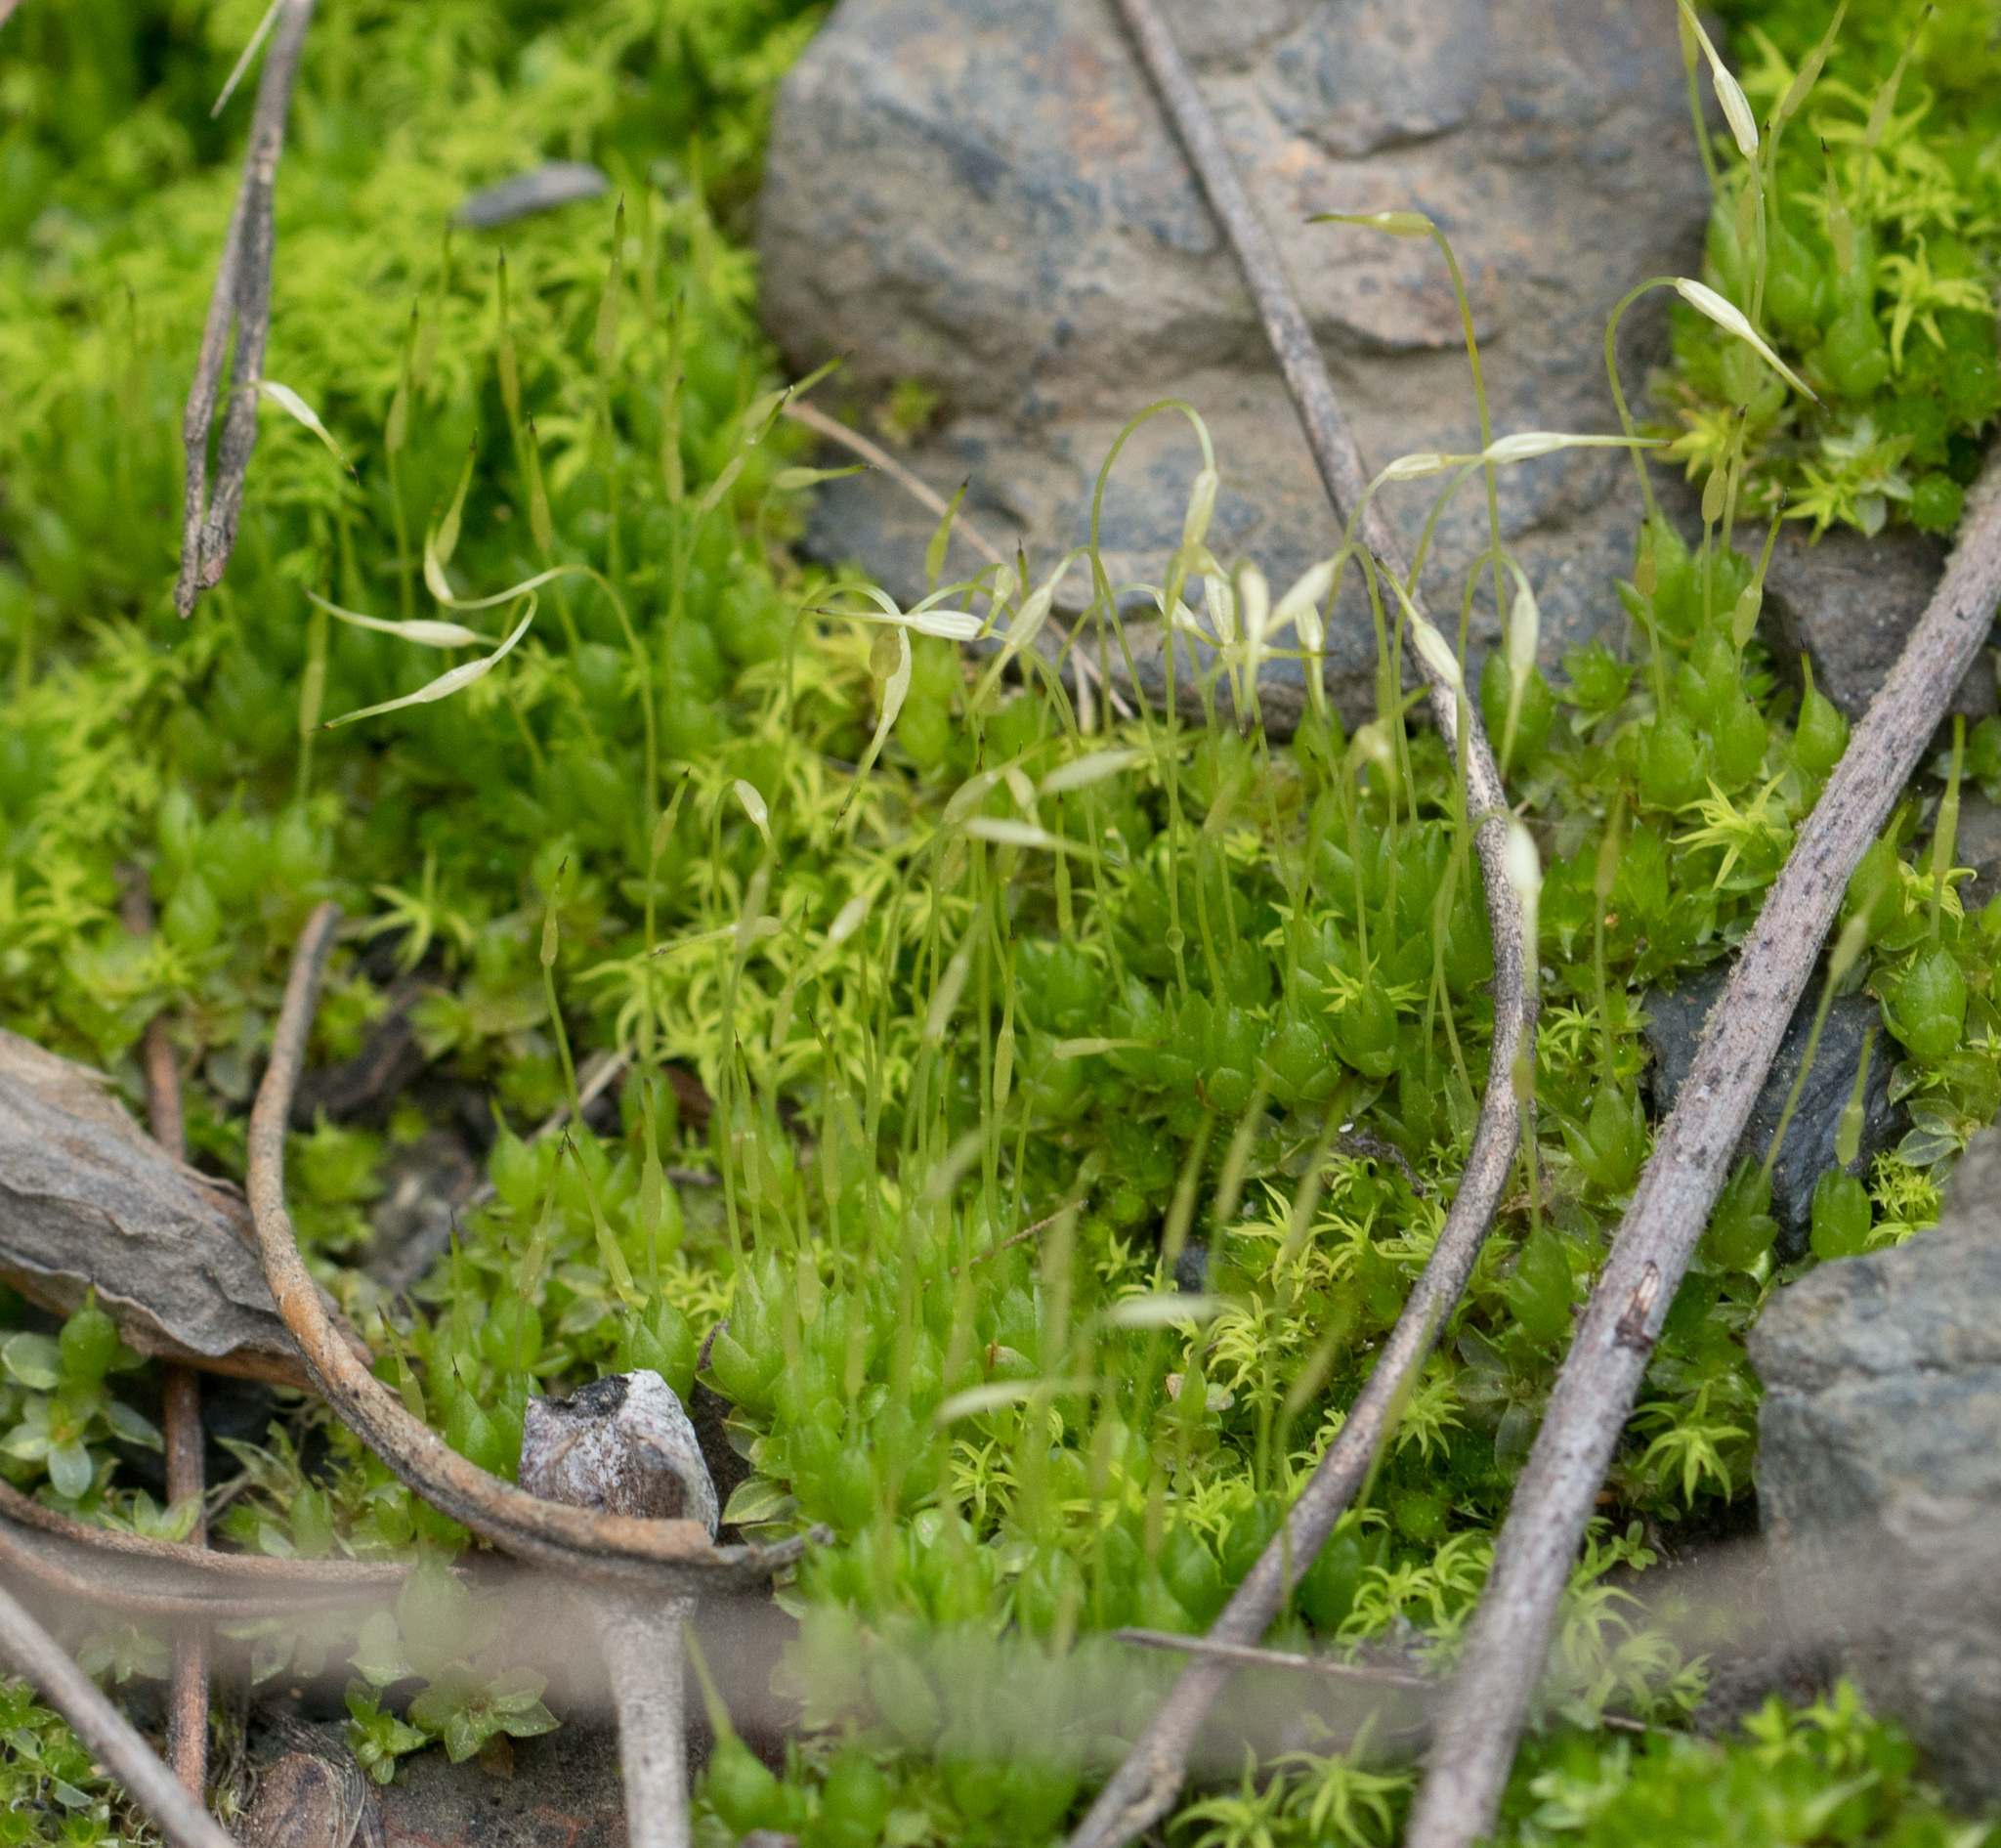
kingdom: Plantae
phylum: Bryophyta
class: Bryopsida
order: Funariales
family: Funariaceae
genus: Funaria
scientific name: Funaria hygrometrica
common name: Common cord moss
